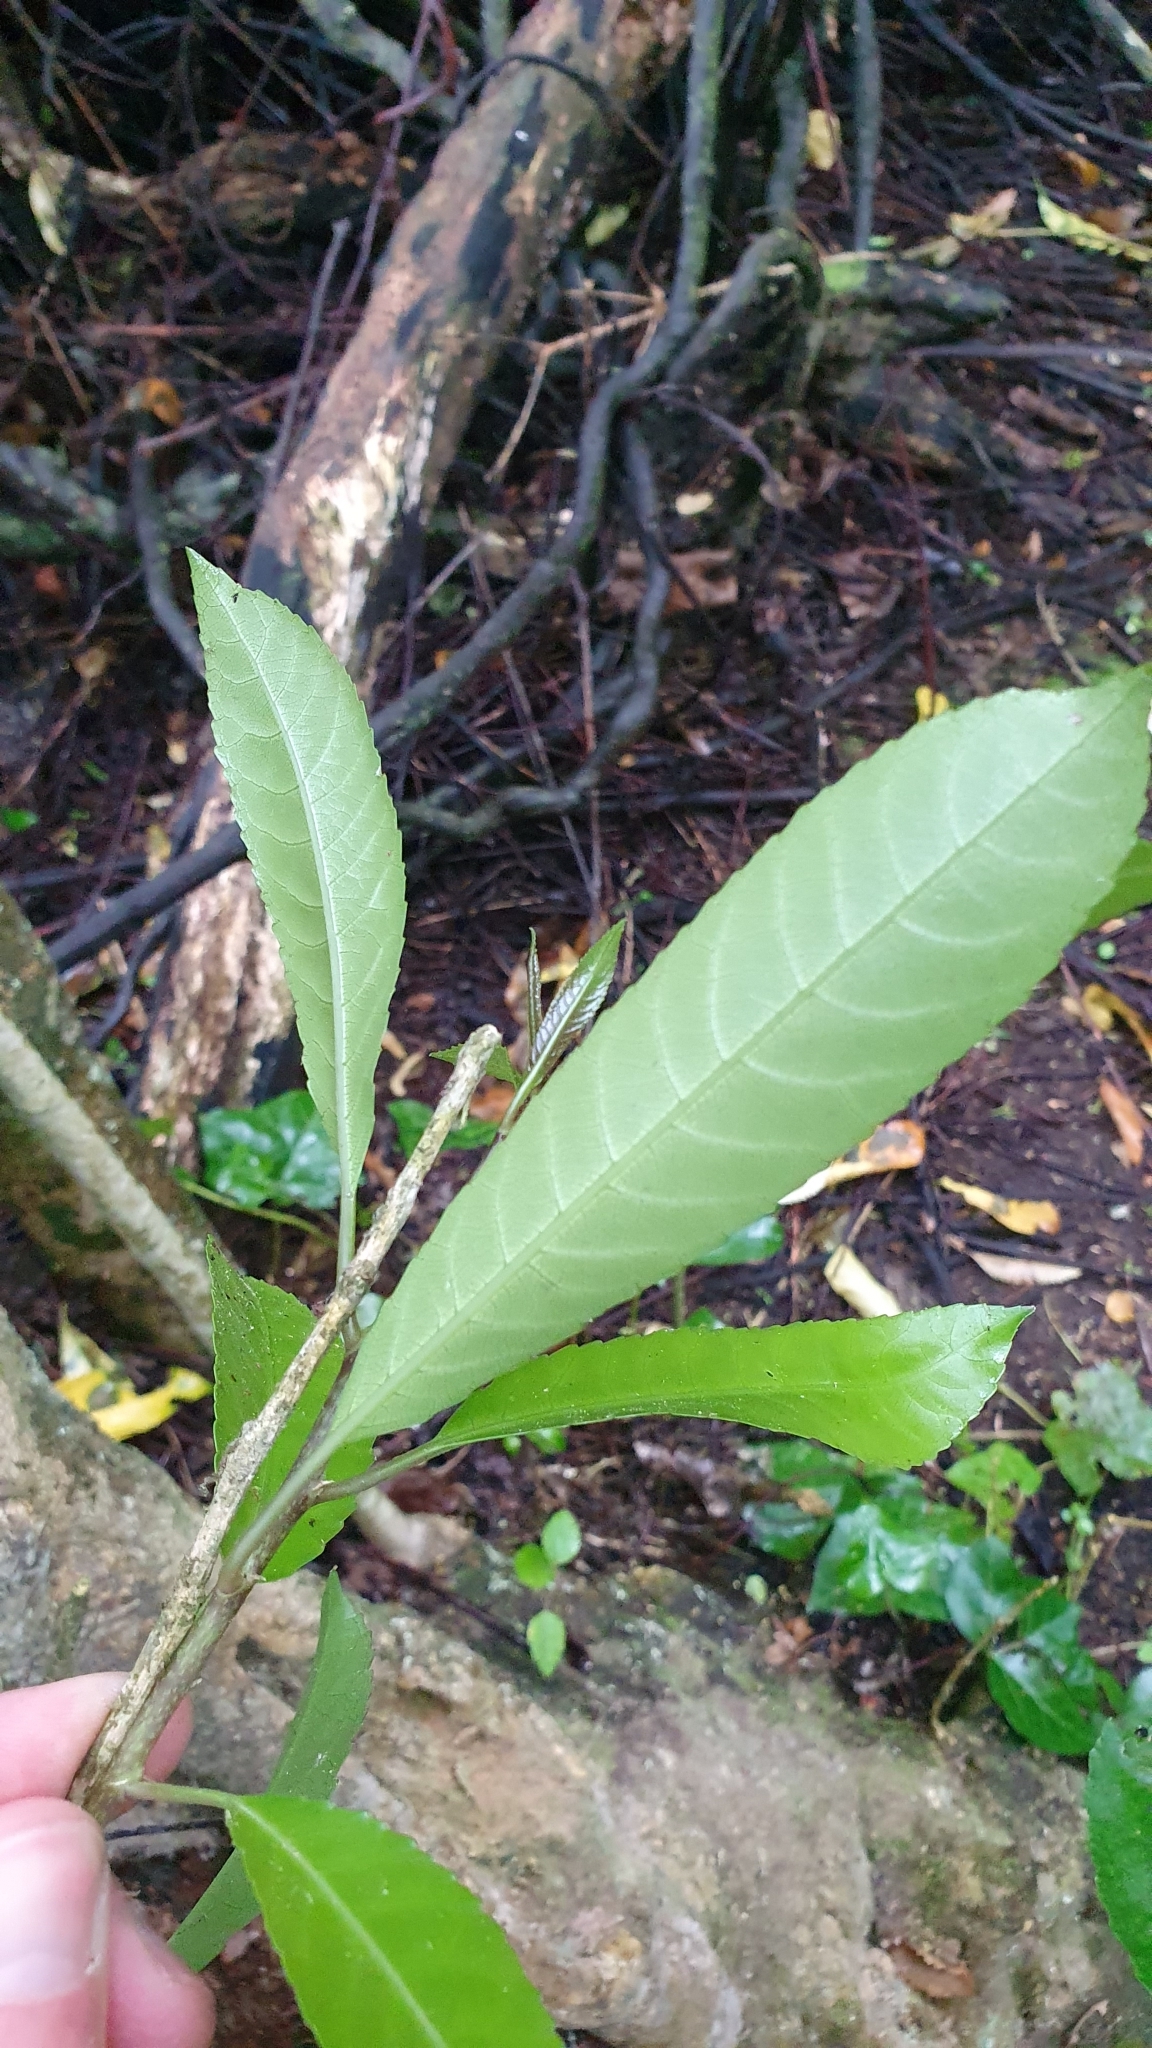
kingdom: Plantae
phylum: Tracheophyta
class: Magnoliopsida
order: Malpighiales
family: Violaceae
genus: Melicytus
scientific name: Melicytus ramiflorus
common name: Mahoe
